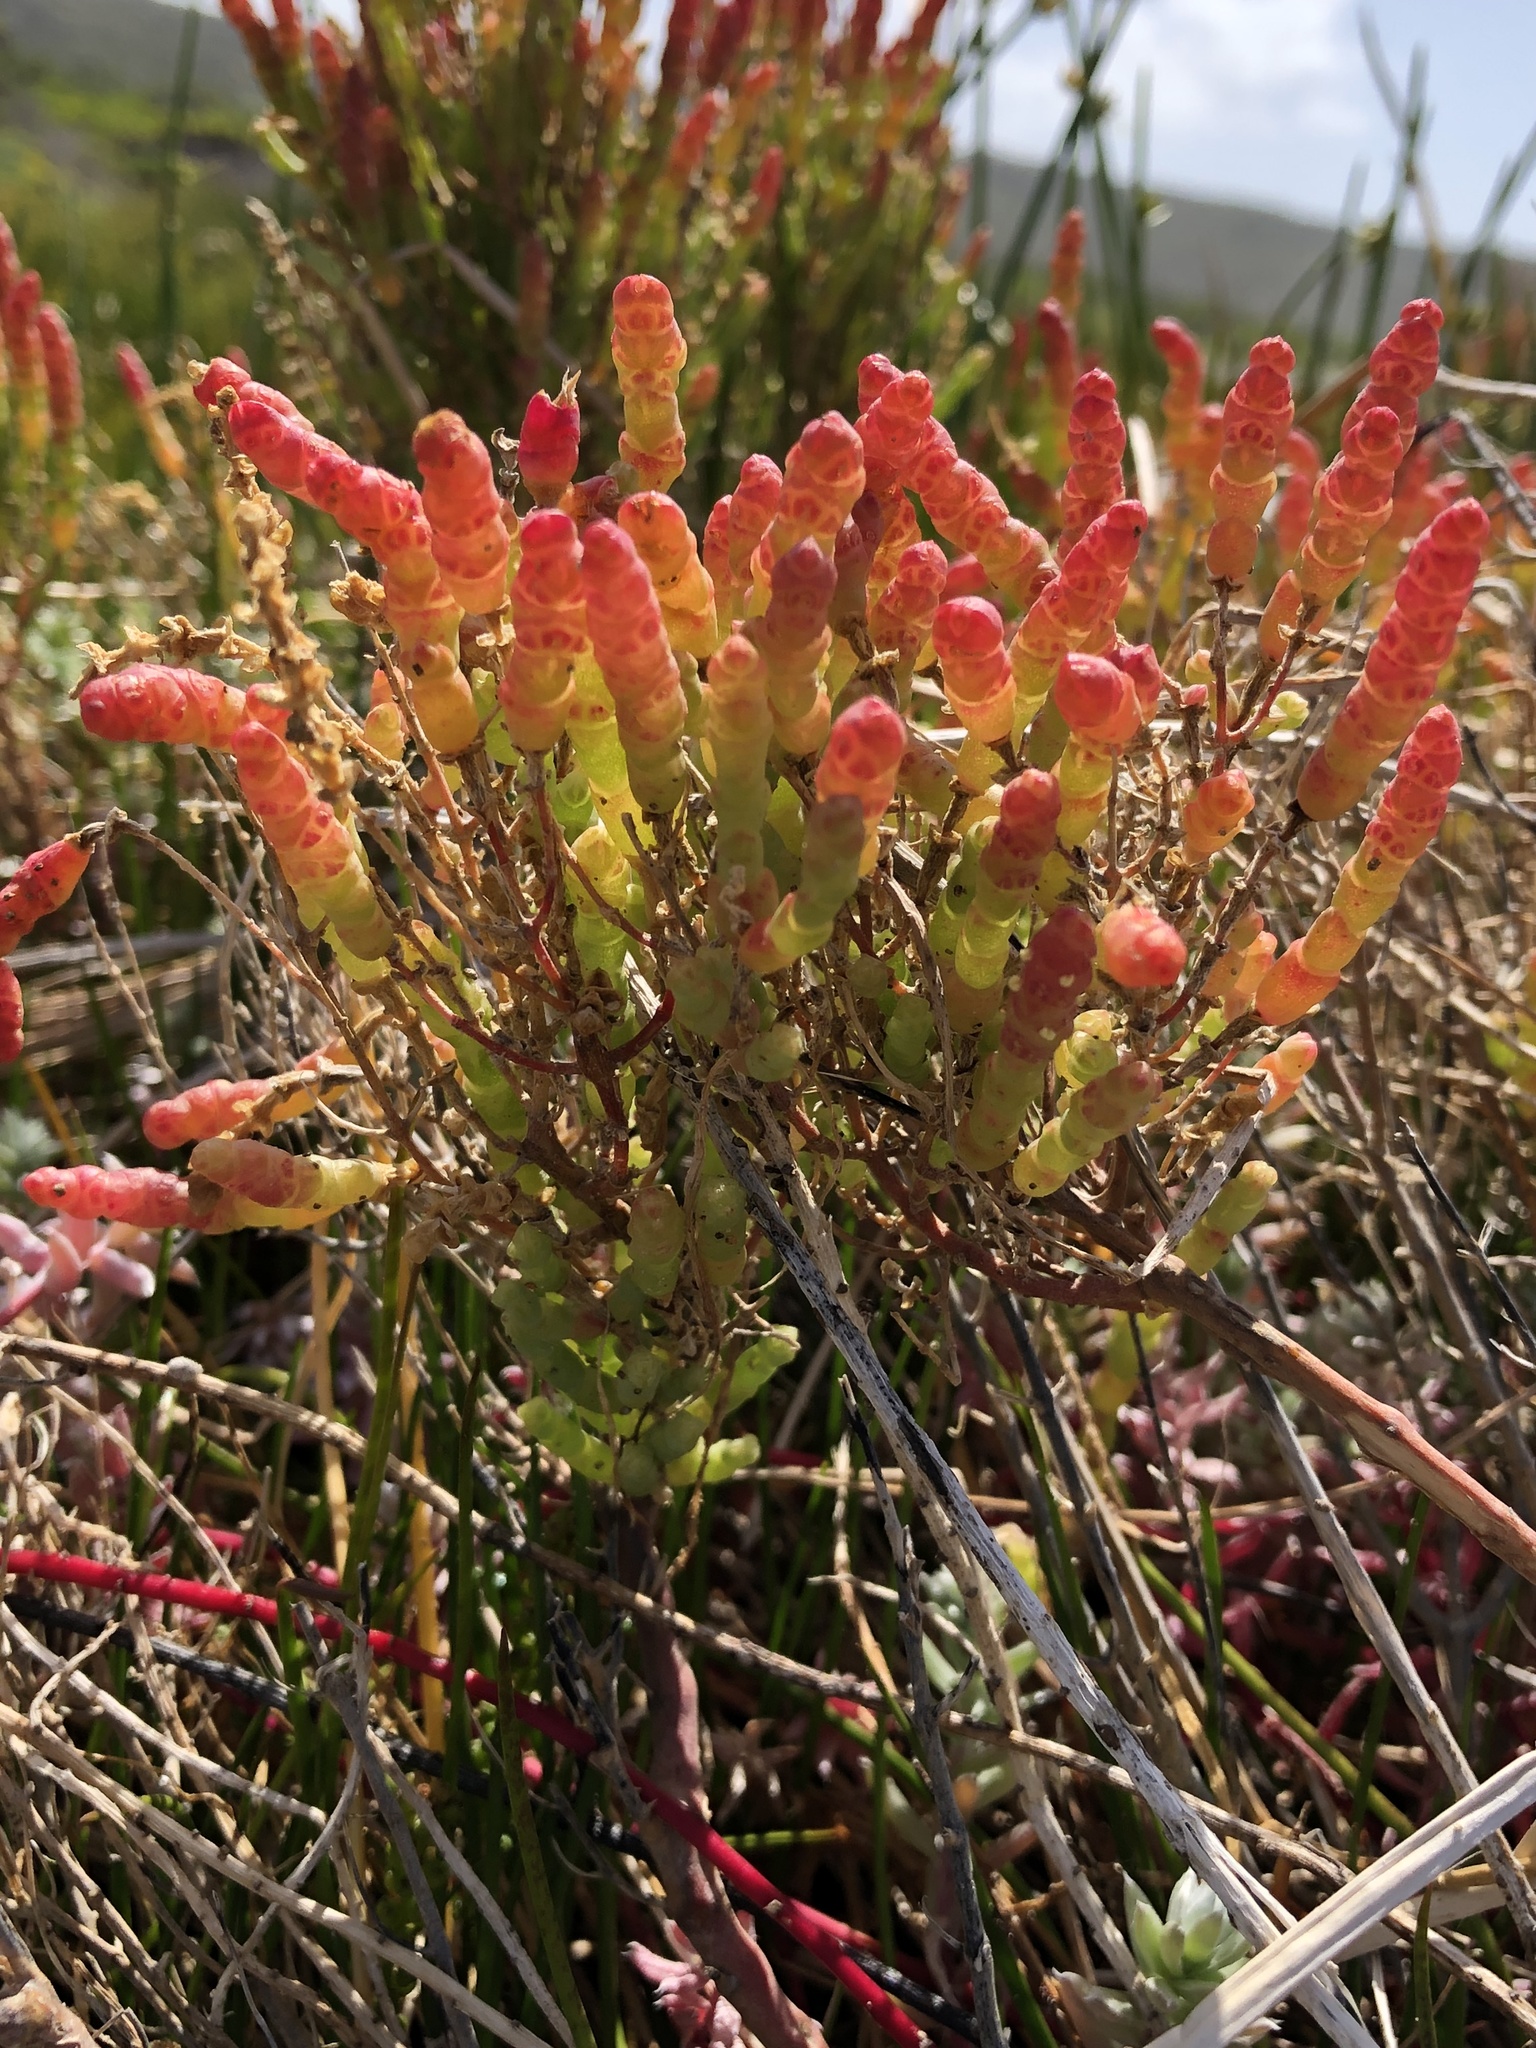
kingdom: Plantae
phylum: Tracheophyta
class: Magnoliopsida
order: Caryophyllales
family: Amaranthaceae
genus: Salicornia
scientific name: Salicornia littorea
